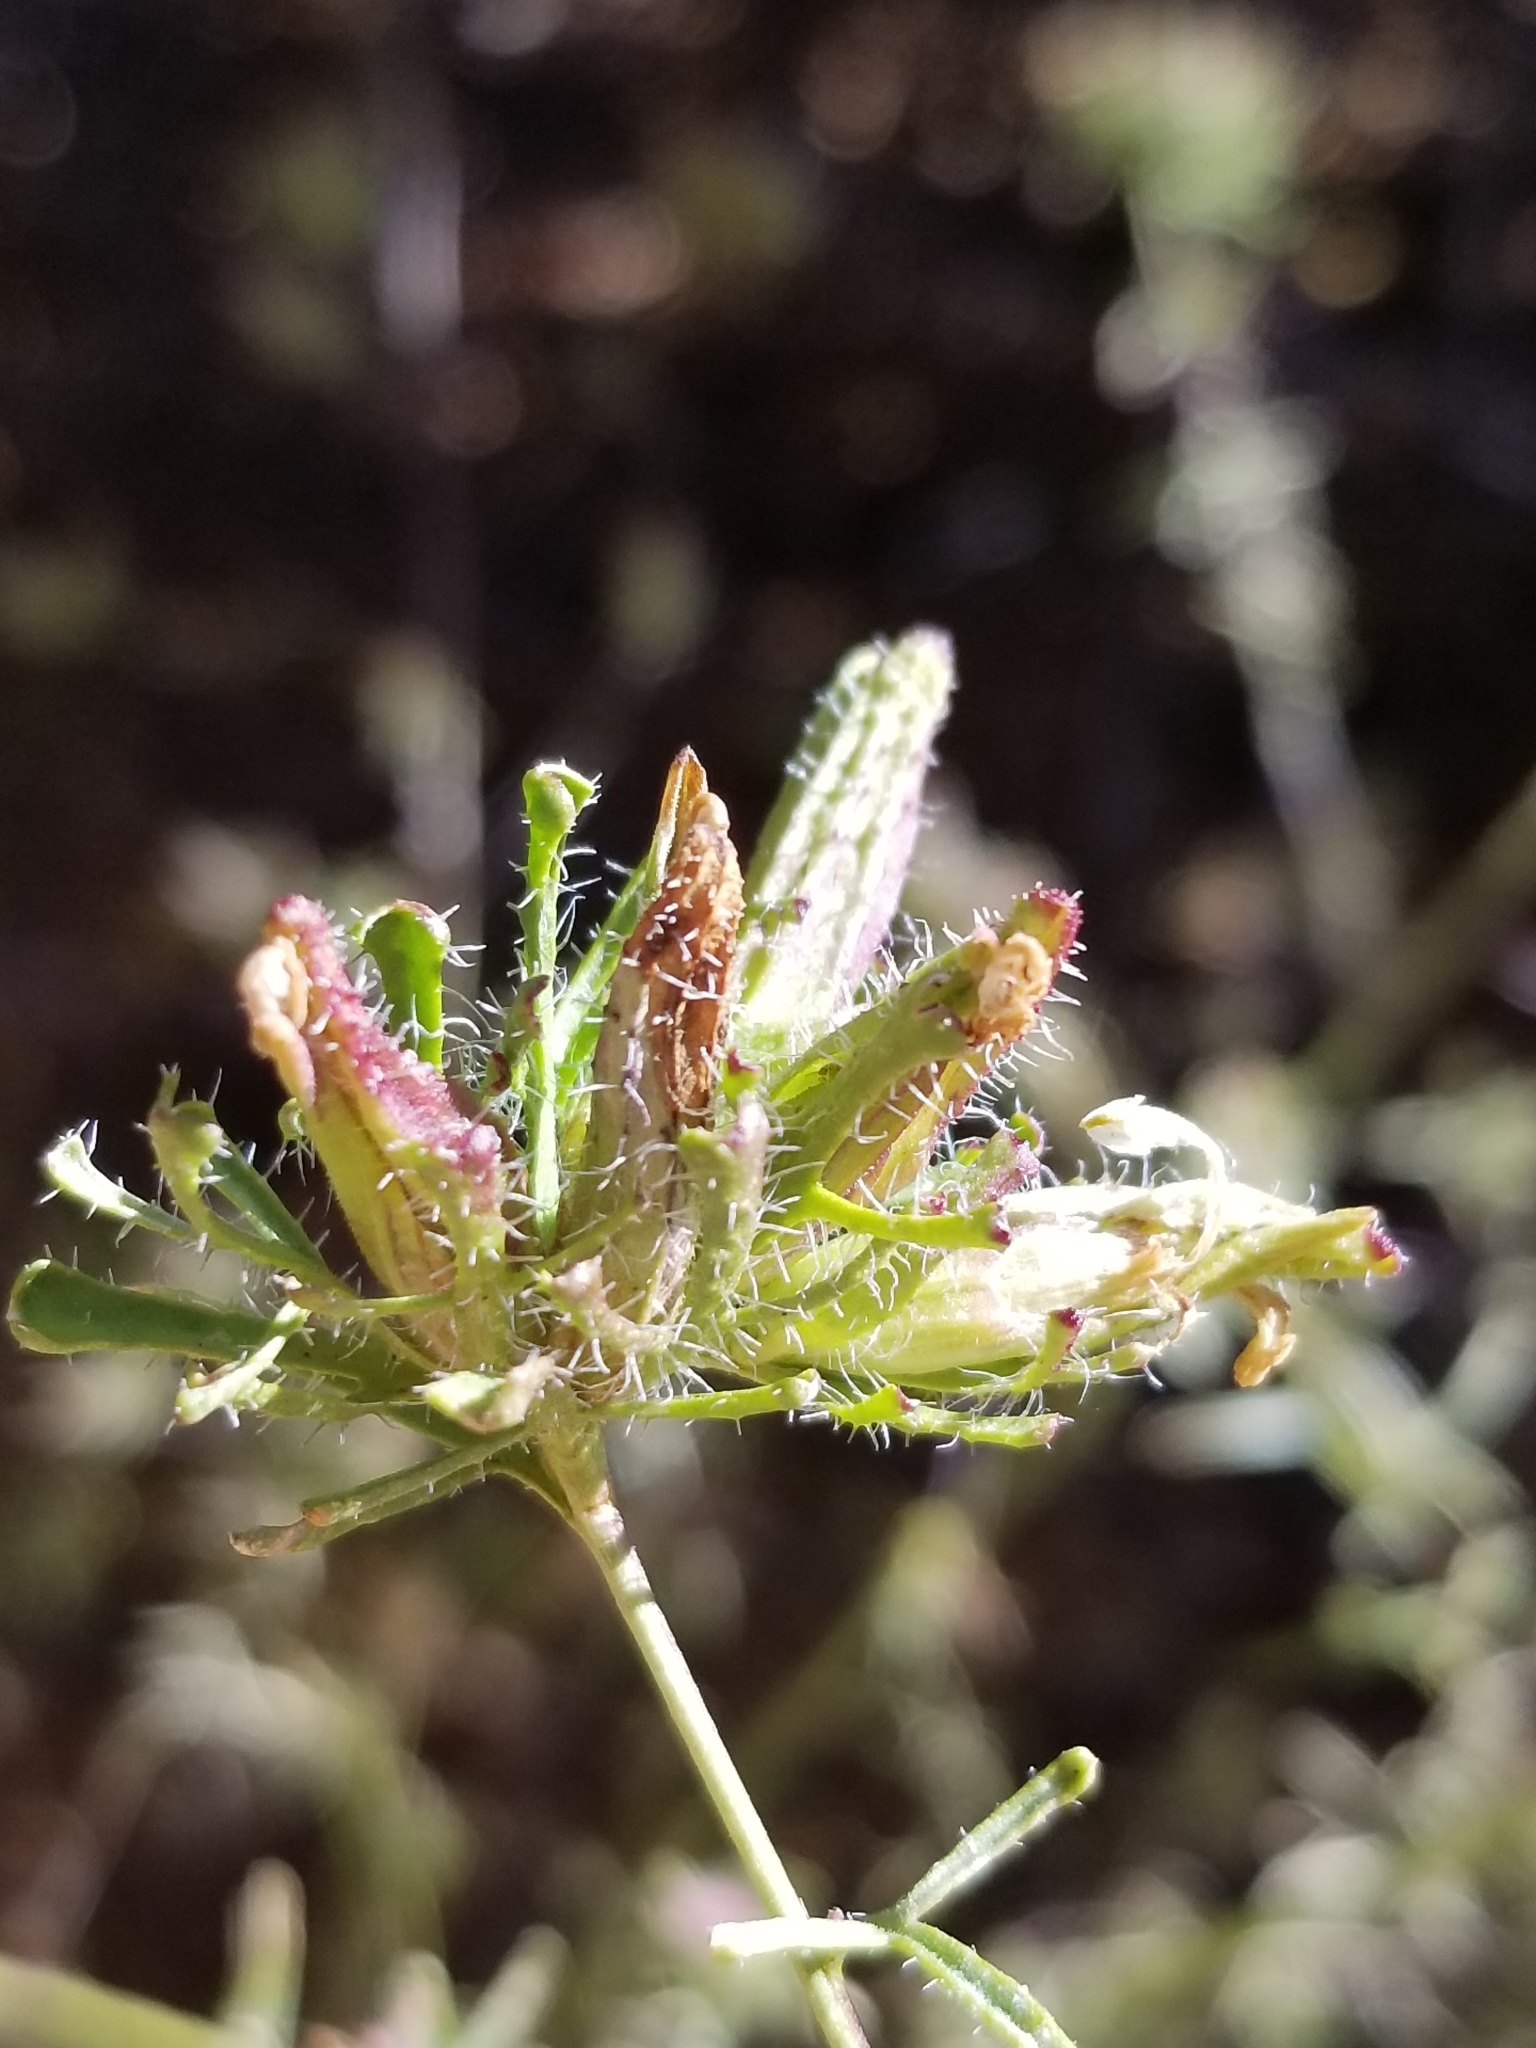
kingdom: Plantae
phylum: Tracheophyta
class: Magnoliopsida
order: Lamiales
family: Orobanchaceae
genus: Cordylanthus
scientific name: Cordylanthus rigidus
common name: Stiff-branch bird's-beak
